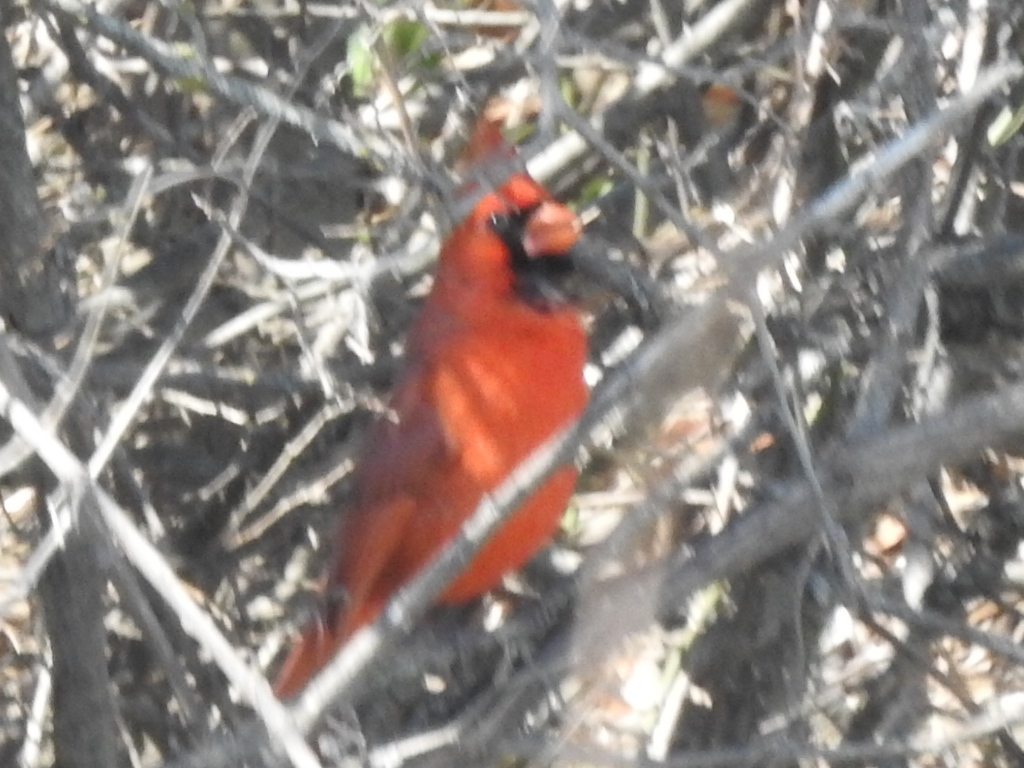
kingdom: Animalia
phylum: Chordata
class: Aves
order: Passeriformes
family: Cardinalidae
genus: Cardinalis
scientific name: Cardinalis cardinalis
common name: Northern cardinal
